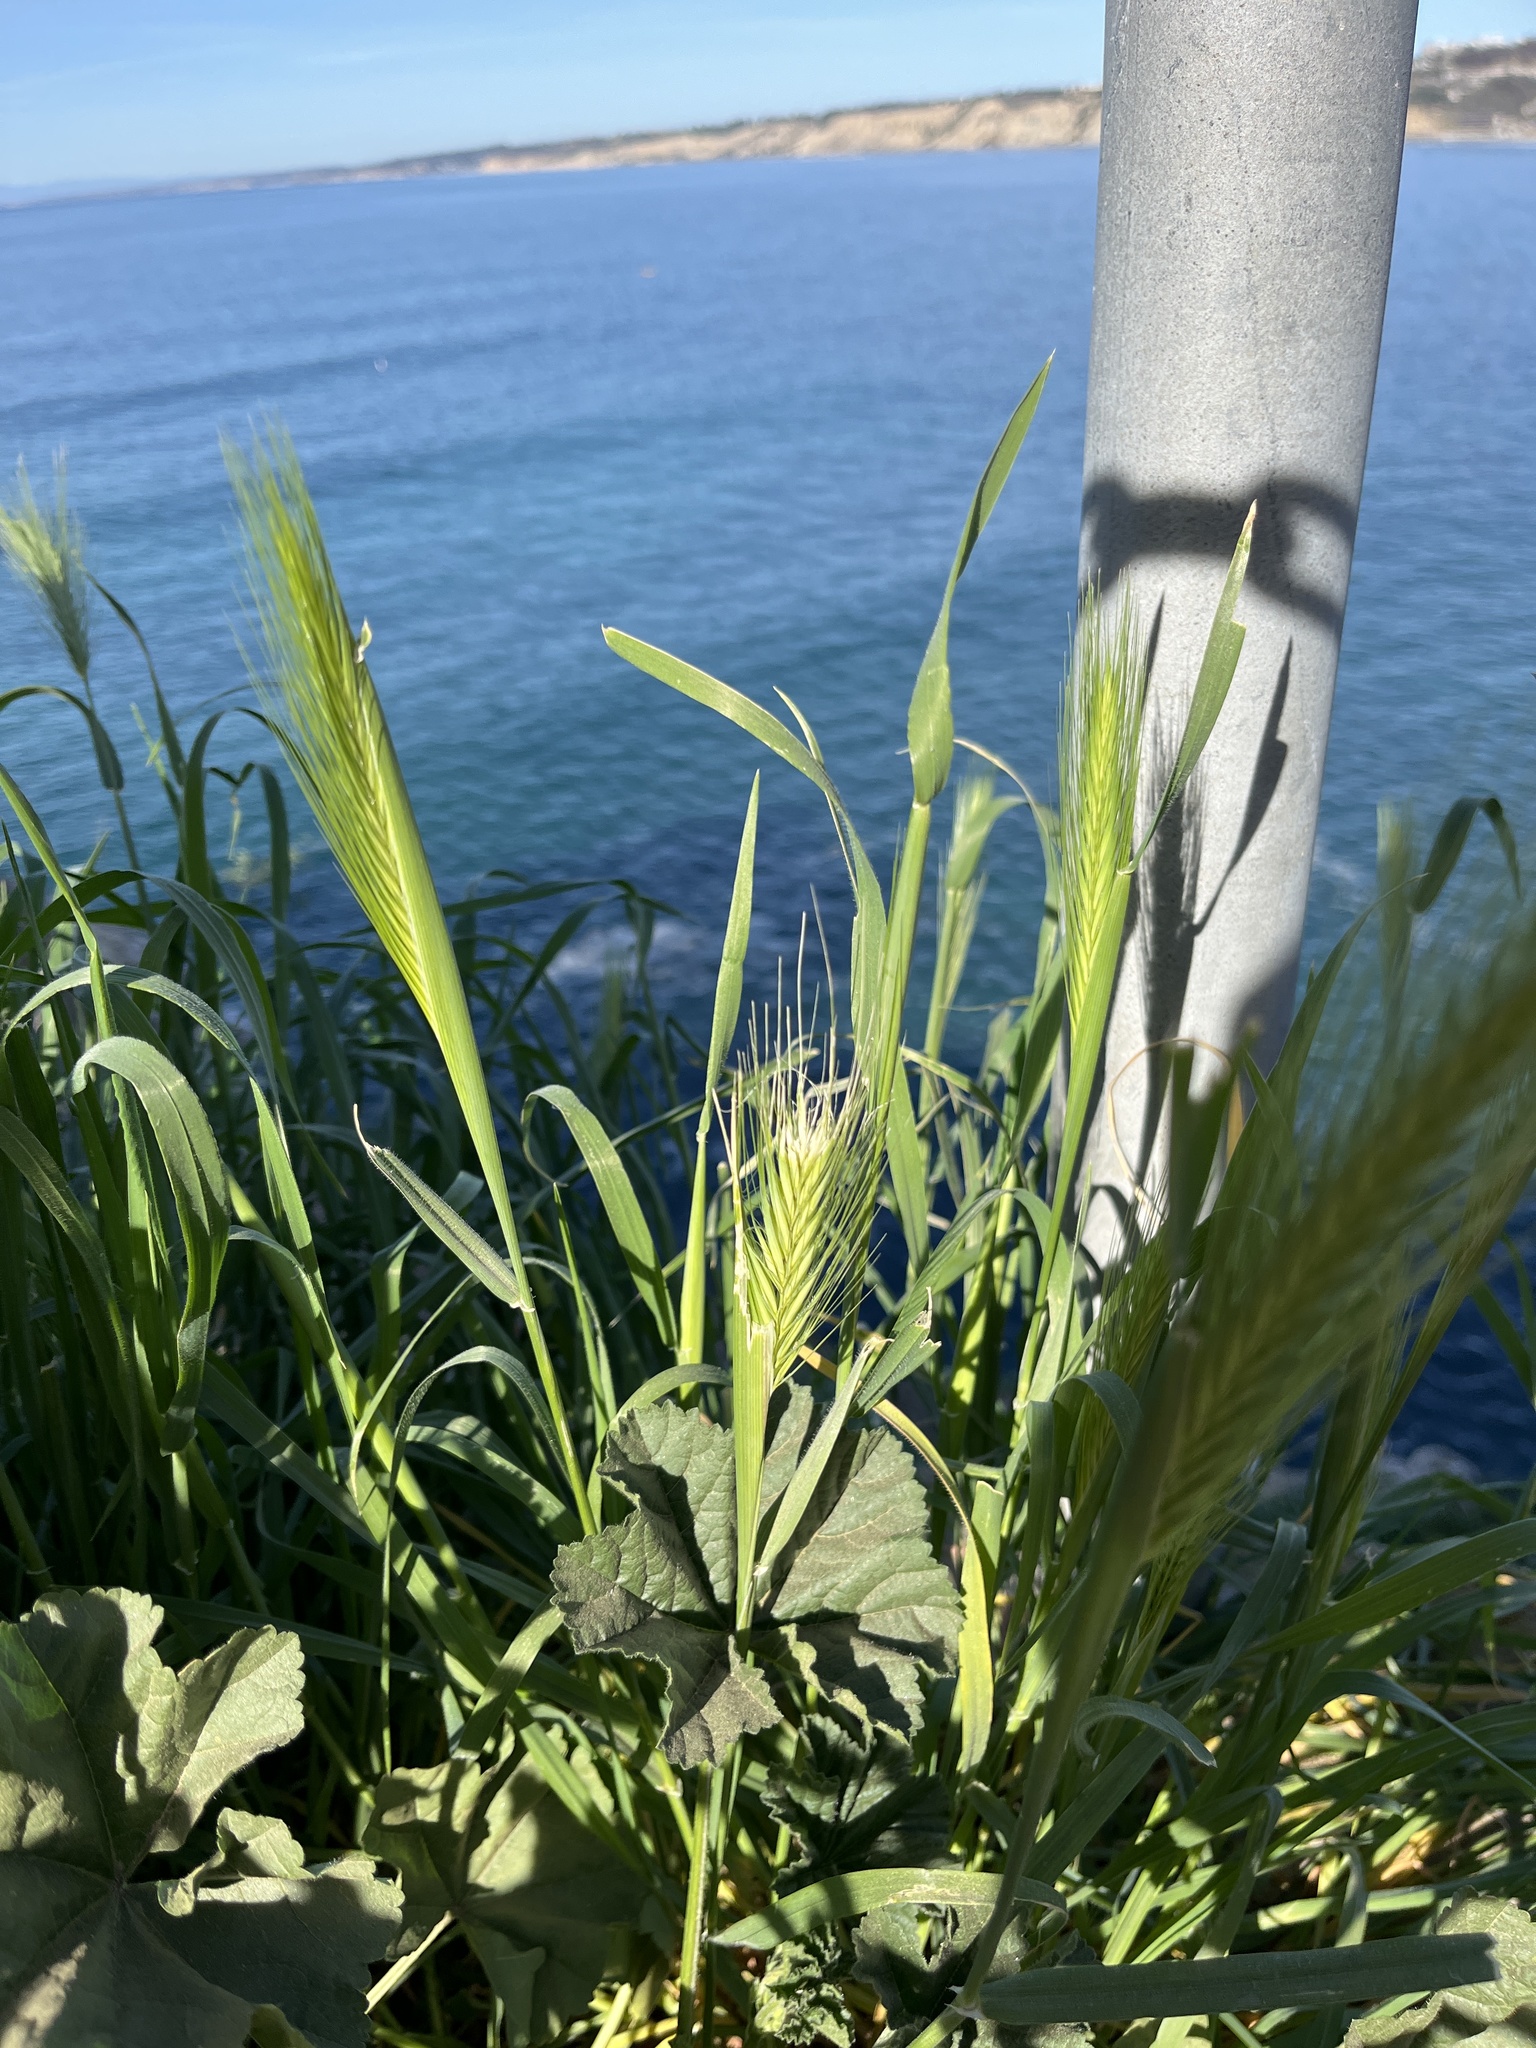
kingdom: Plantae
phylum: Tracheophyta
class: Liliopsida
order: Poales
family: Poaceae
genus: Hordeum
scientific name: Hordeum murinum
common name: Wall barley
